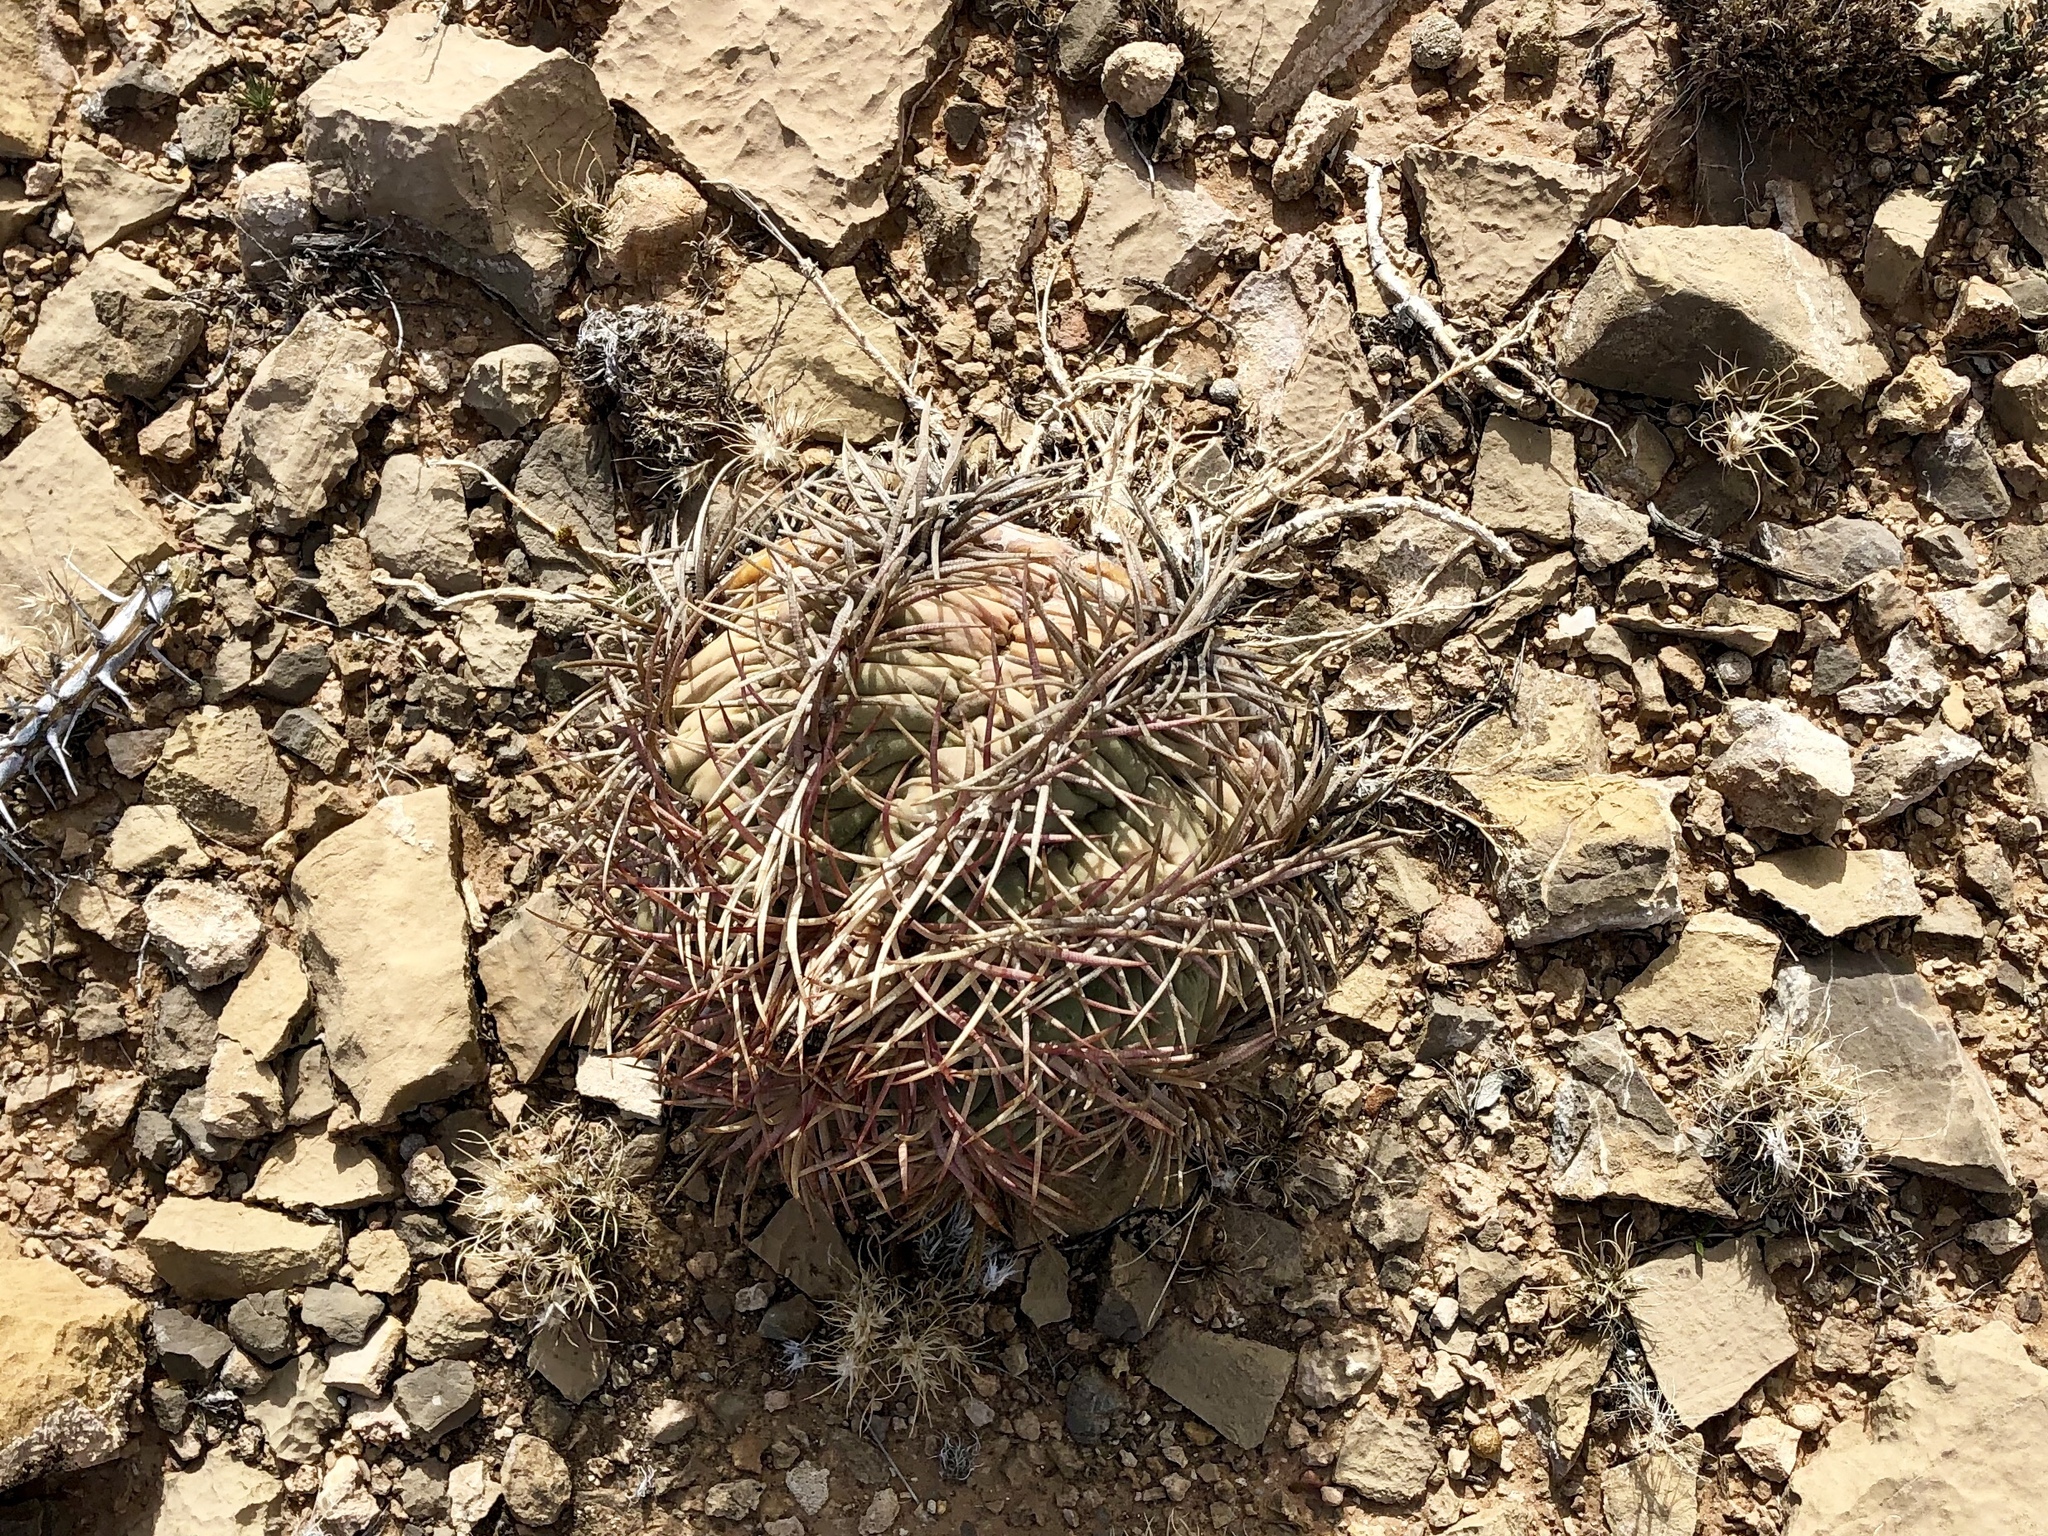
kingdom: Plantae
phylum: Tracheophyta
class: Magnoliopsida
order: Caryophyllales
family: Cactaceae
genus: Echinocactus
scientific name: Echinocactus horizonthalonius
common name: Devilshead
